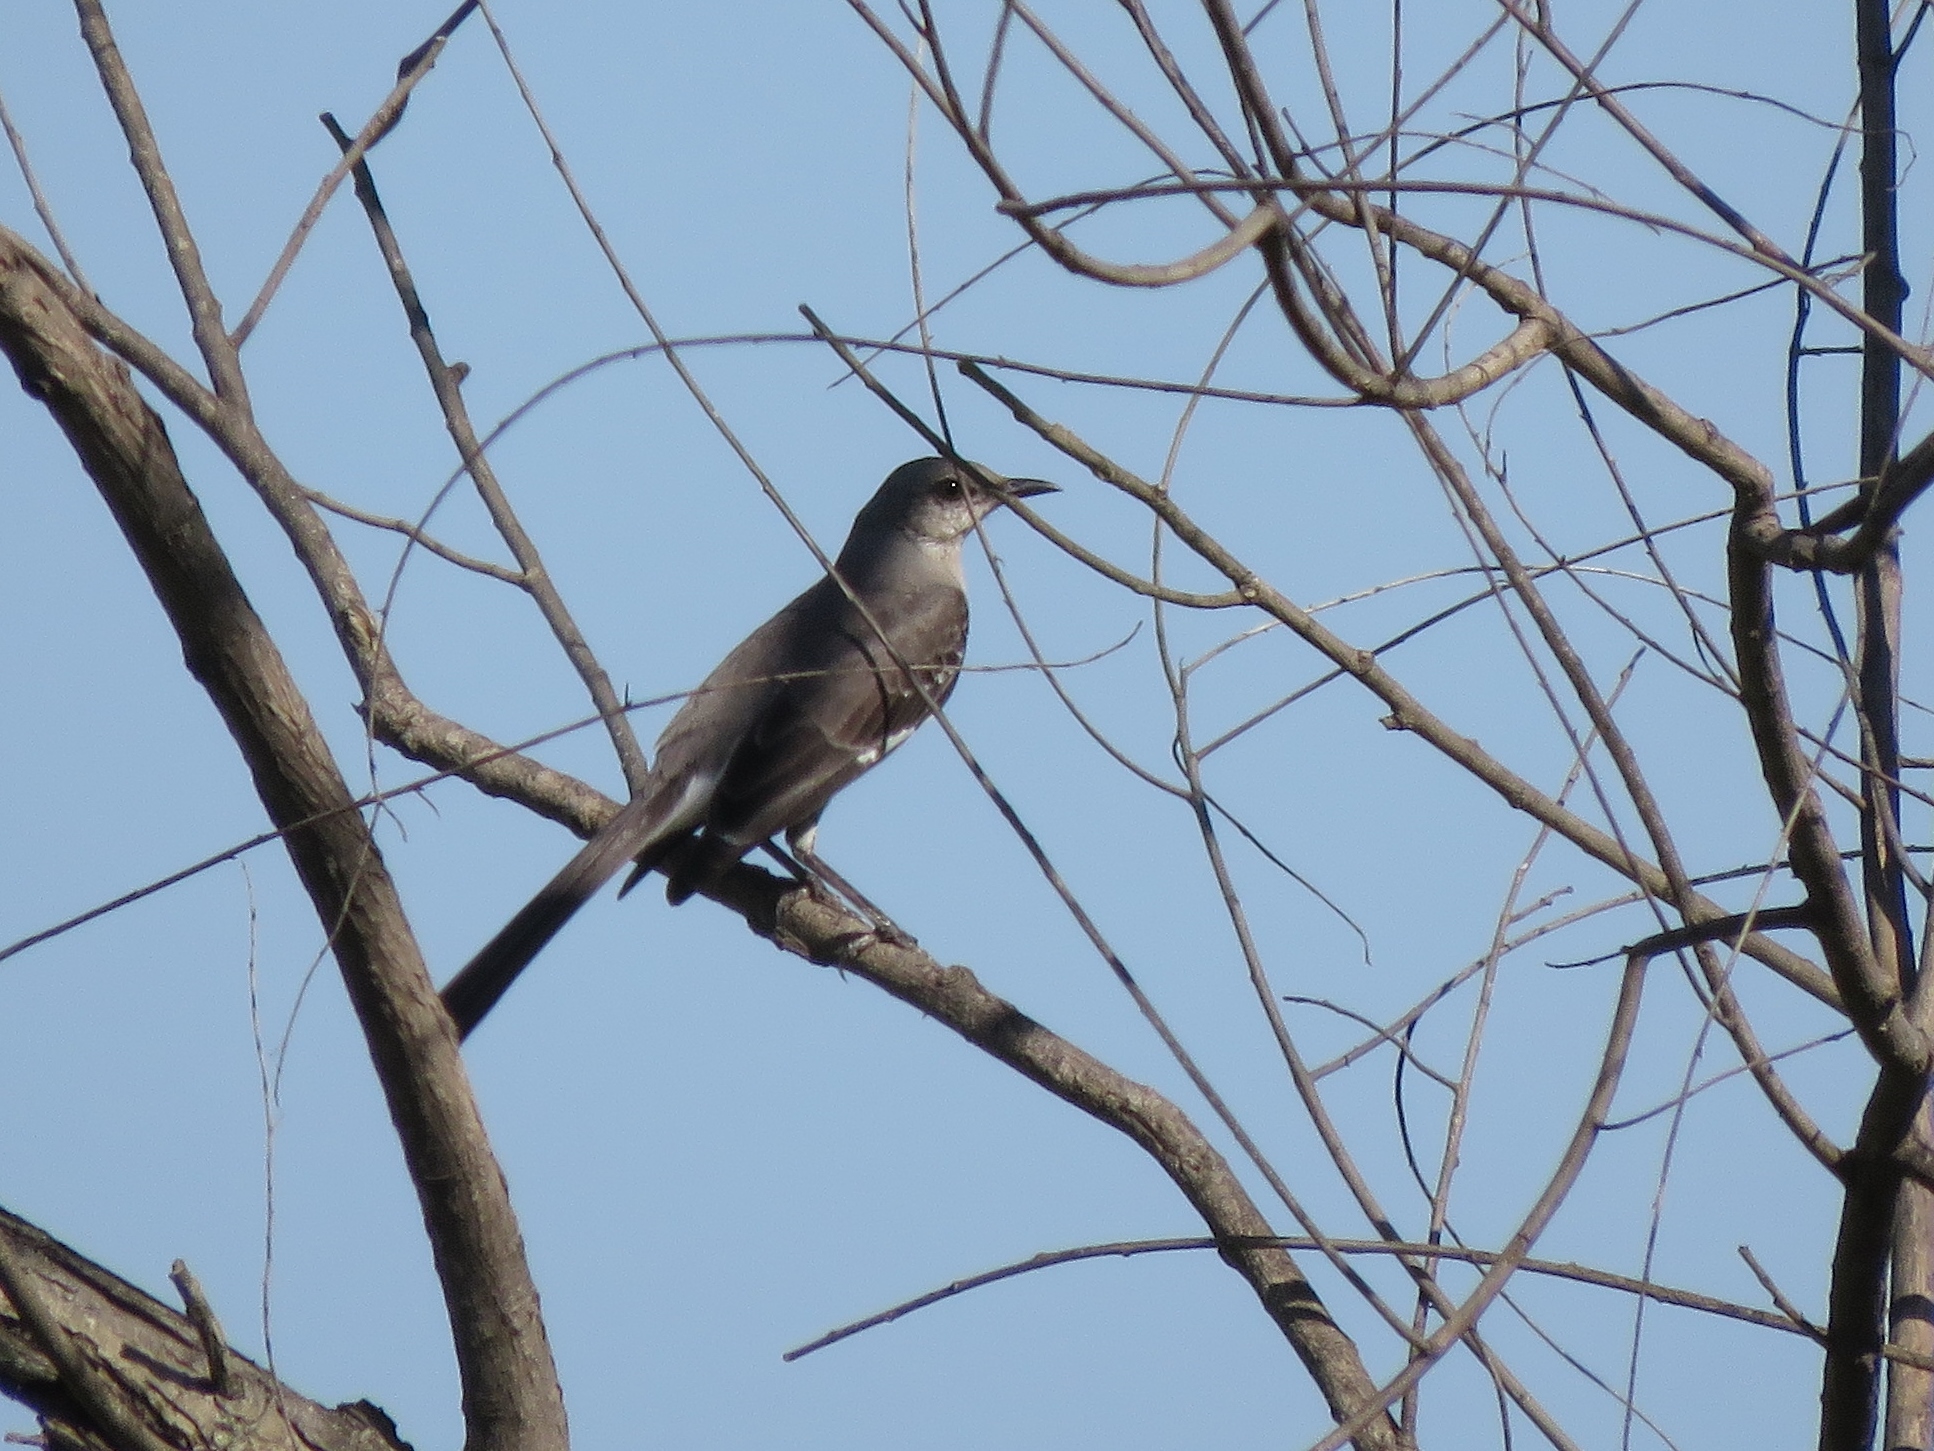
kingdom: Animalia
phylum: Chordata
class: Aves
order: Passeriformes
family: Mimidae
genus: Mimus
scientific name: Mimus polyglottos
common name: Northern mockingbird
